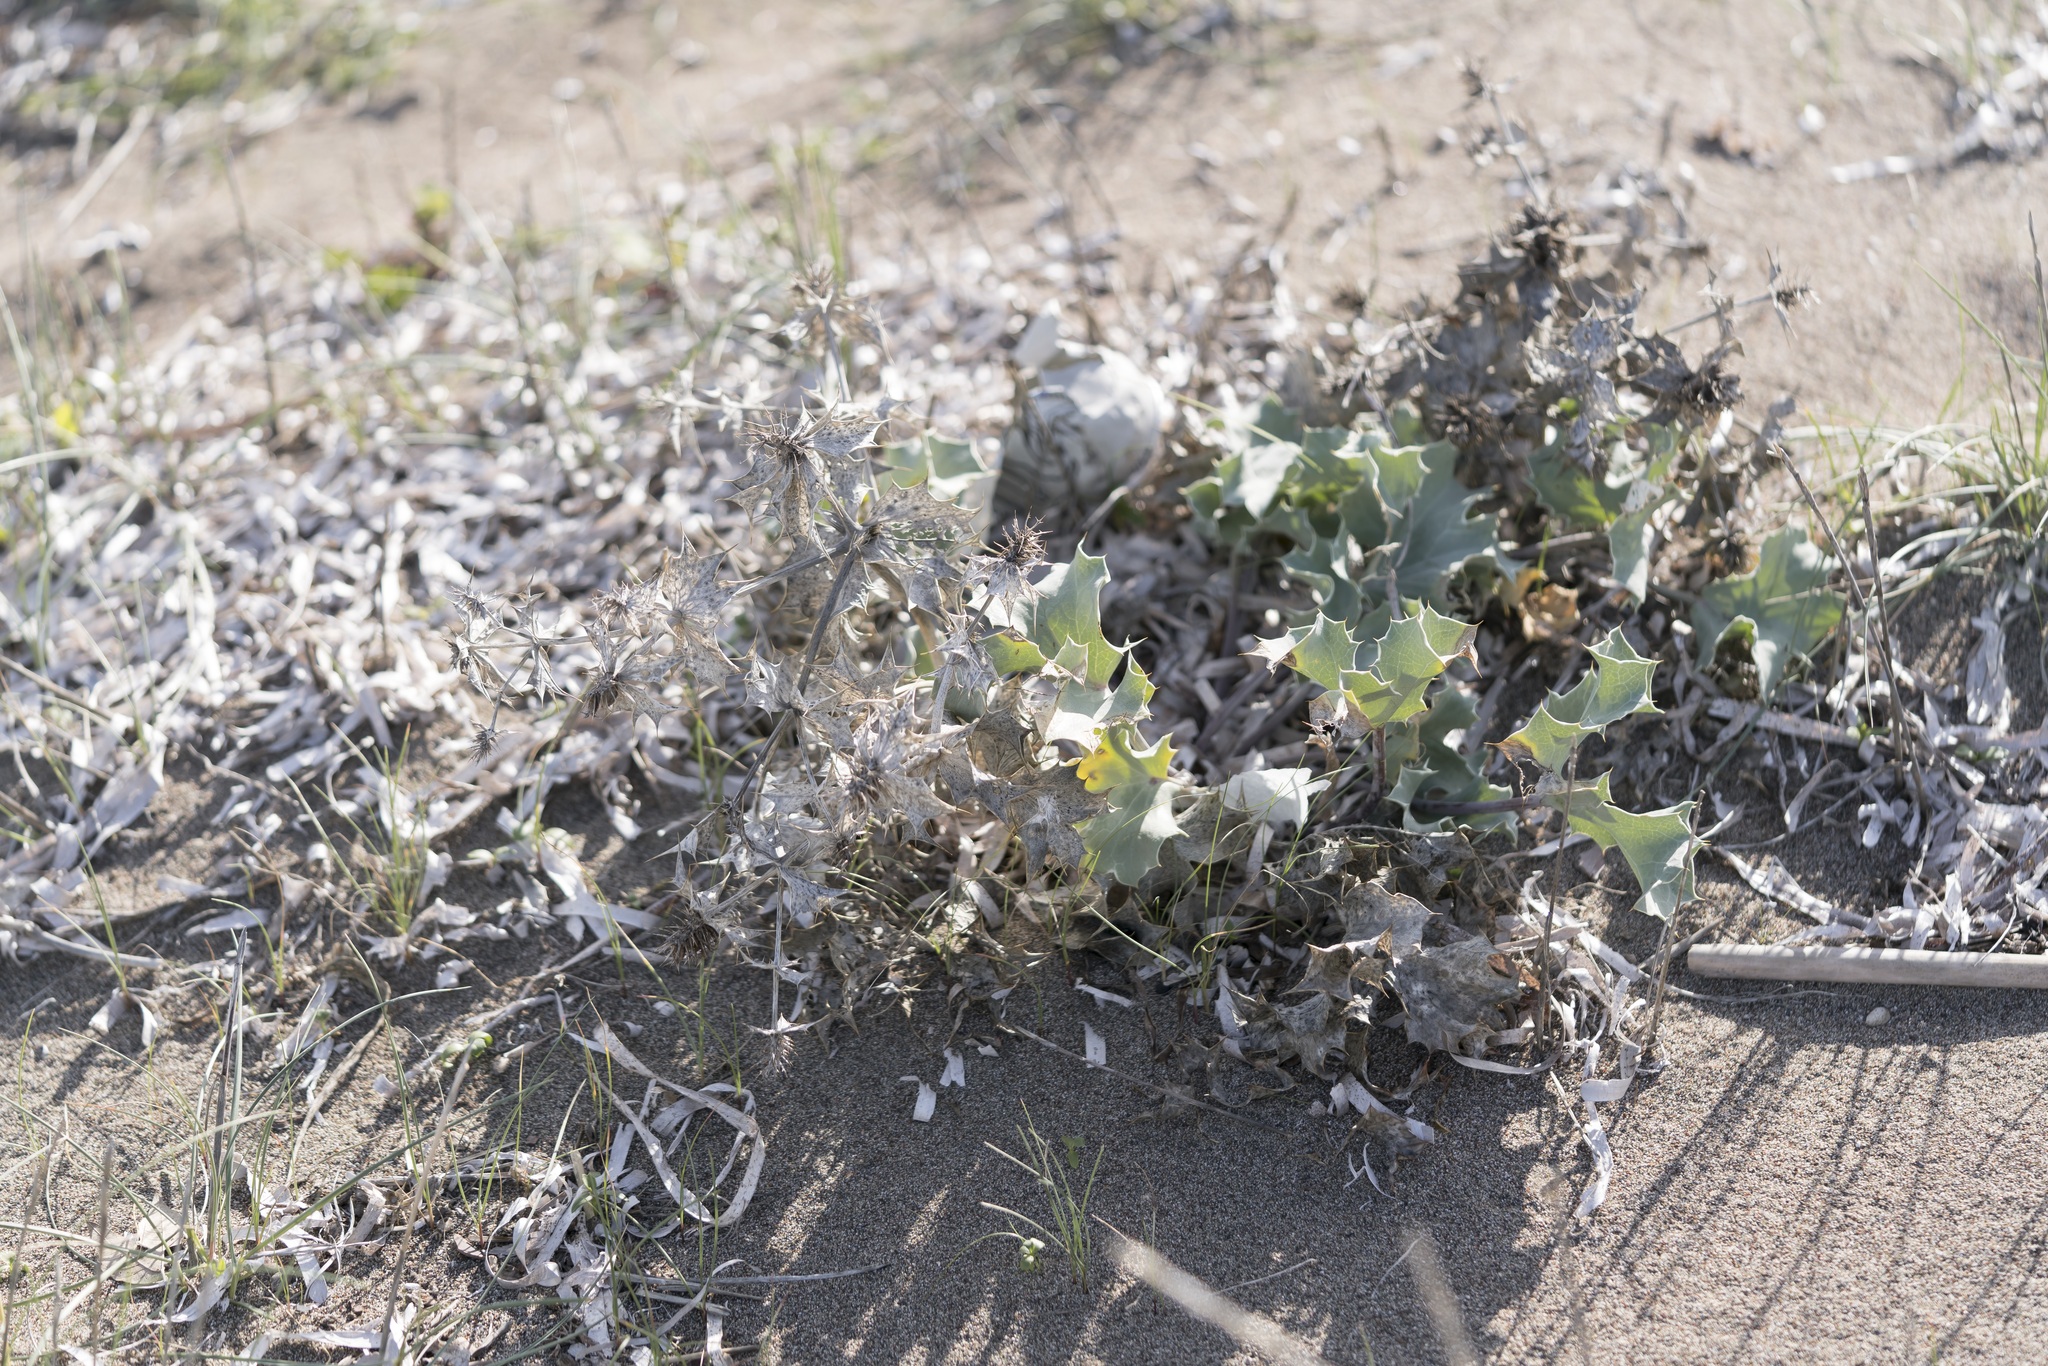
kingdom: Plantae
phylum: Tracheophyta
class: Magnoliopsida
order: Apiales
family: Apiaceae
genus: Eryngium
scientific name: Eryngium maritimum
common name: Sea-holly
